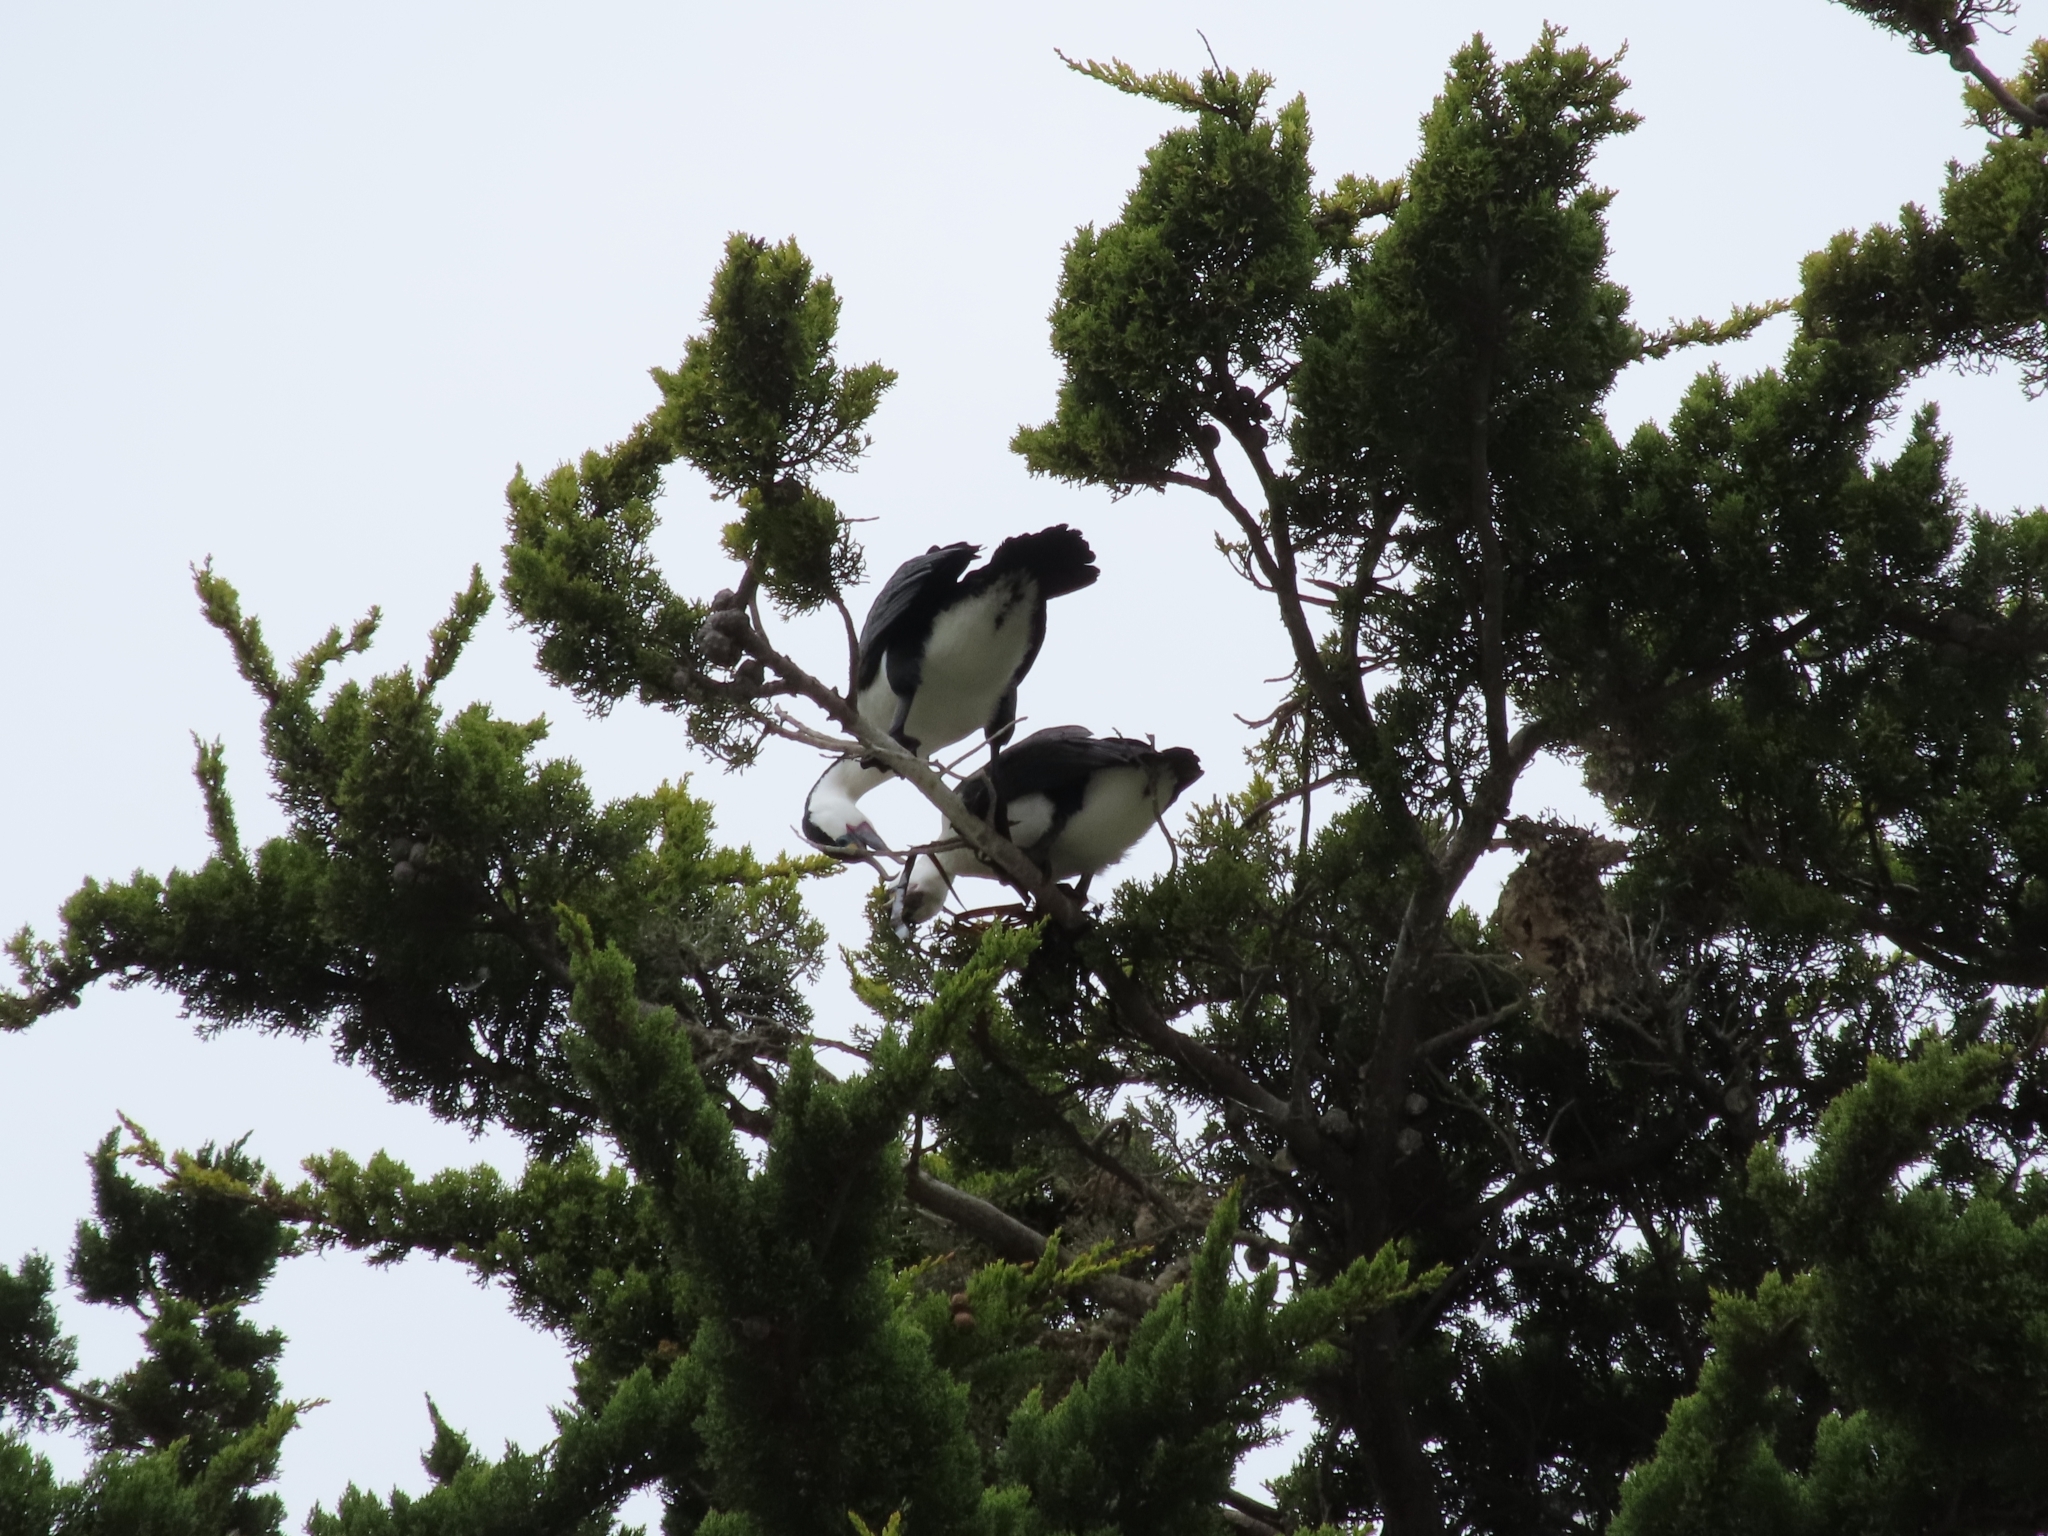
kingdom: Animalia
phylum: Chordata
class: Aves
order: Suliformes
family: Phalacrocoracidae
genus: Phalacrocorax
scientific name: Phalacrocorax varius
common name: Pied cormorant
